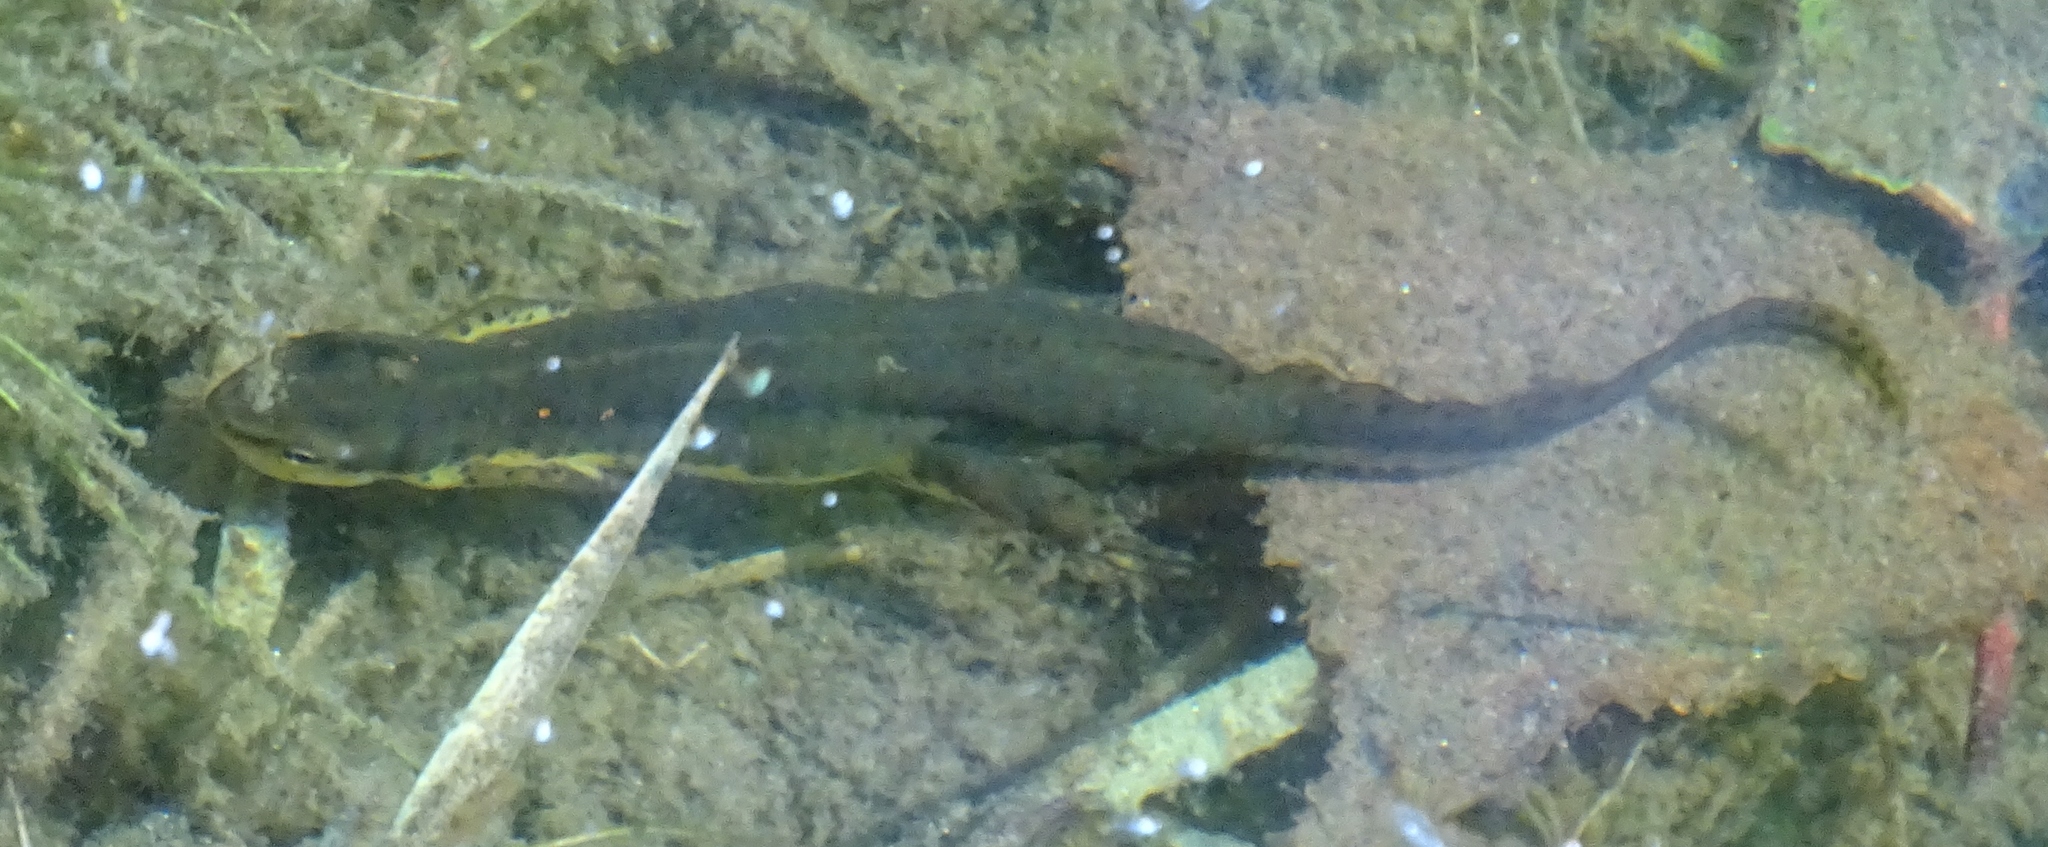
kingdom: Animalia
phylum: Chordata
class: Amphibia
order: Caudata
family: Salamandridae
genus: Notophthalmus
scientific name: Notophthalmus viridescens
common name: Eastern newt
